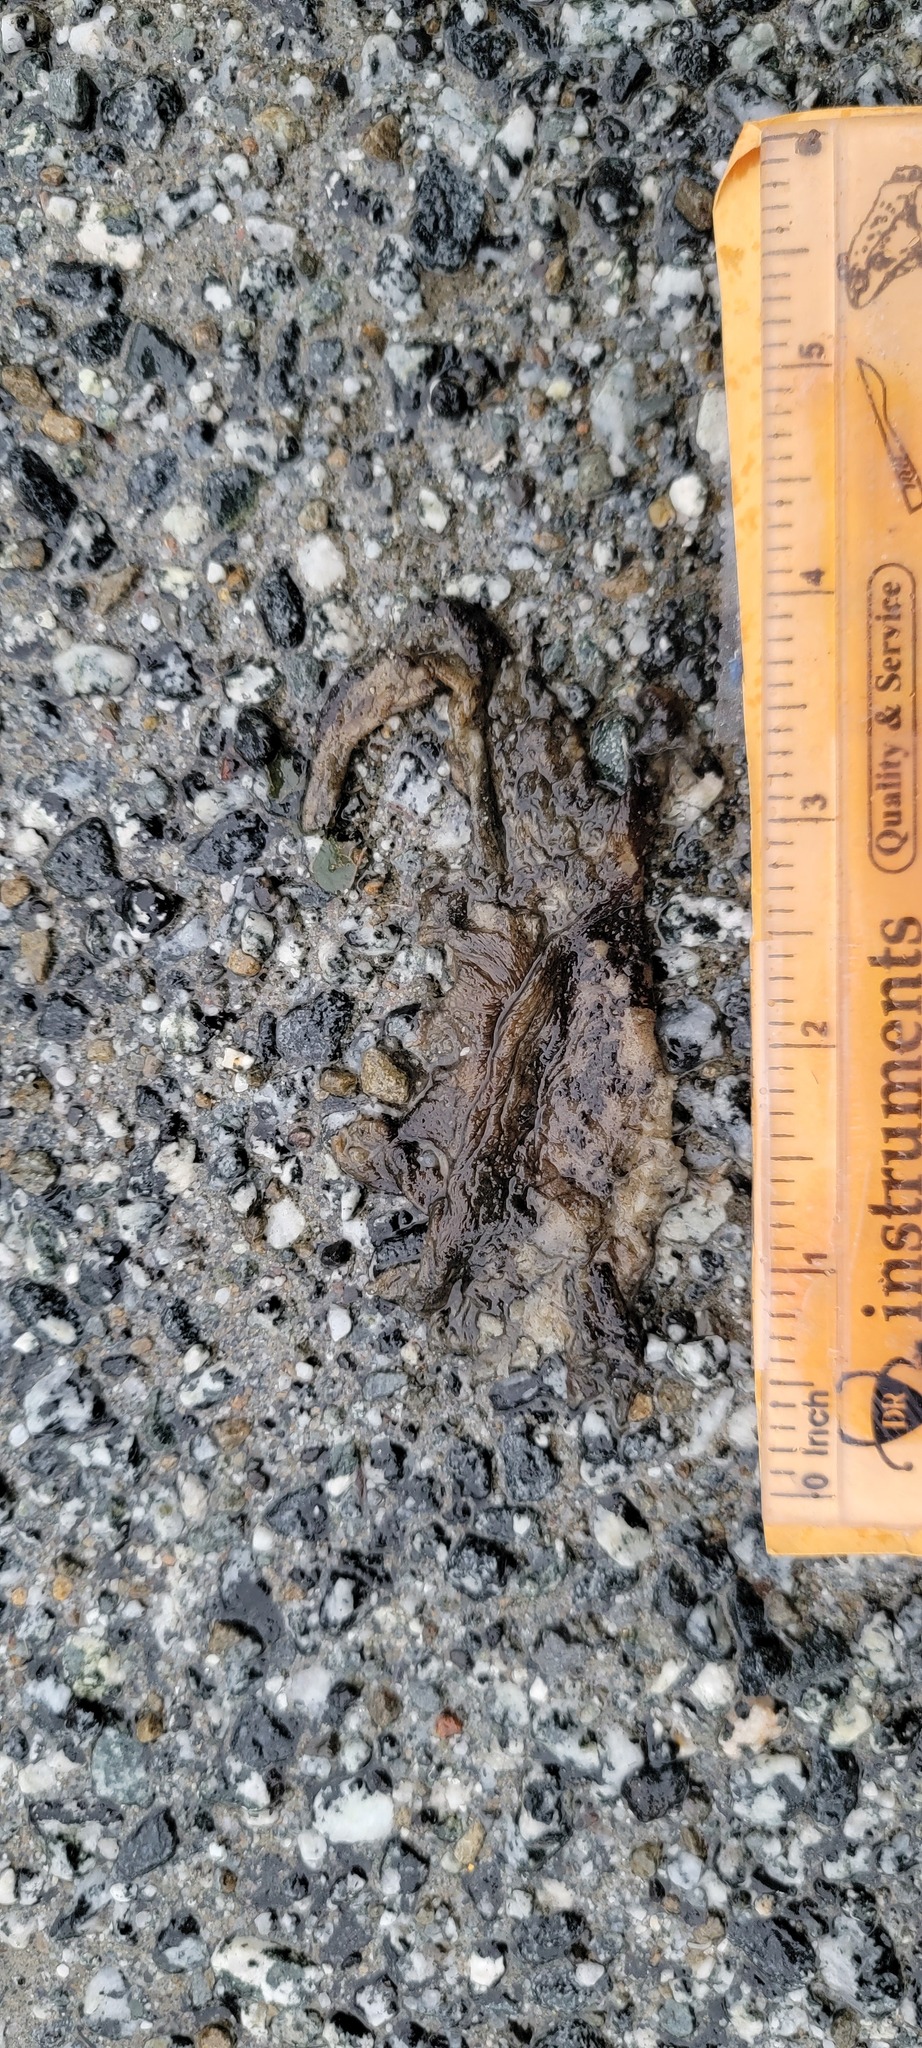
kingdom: Animalia
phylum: Chordata
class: Amphibia
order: Caudata
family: Salamandridae
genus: Taricha
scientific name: Taricha
